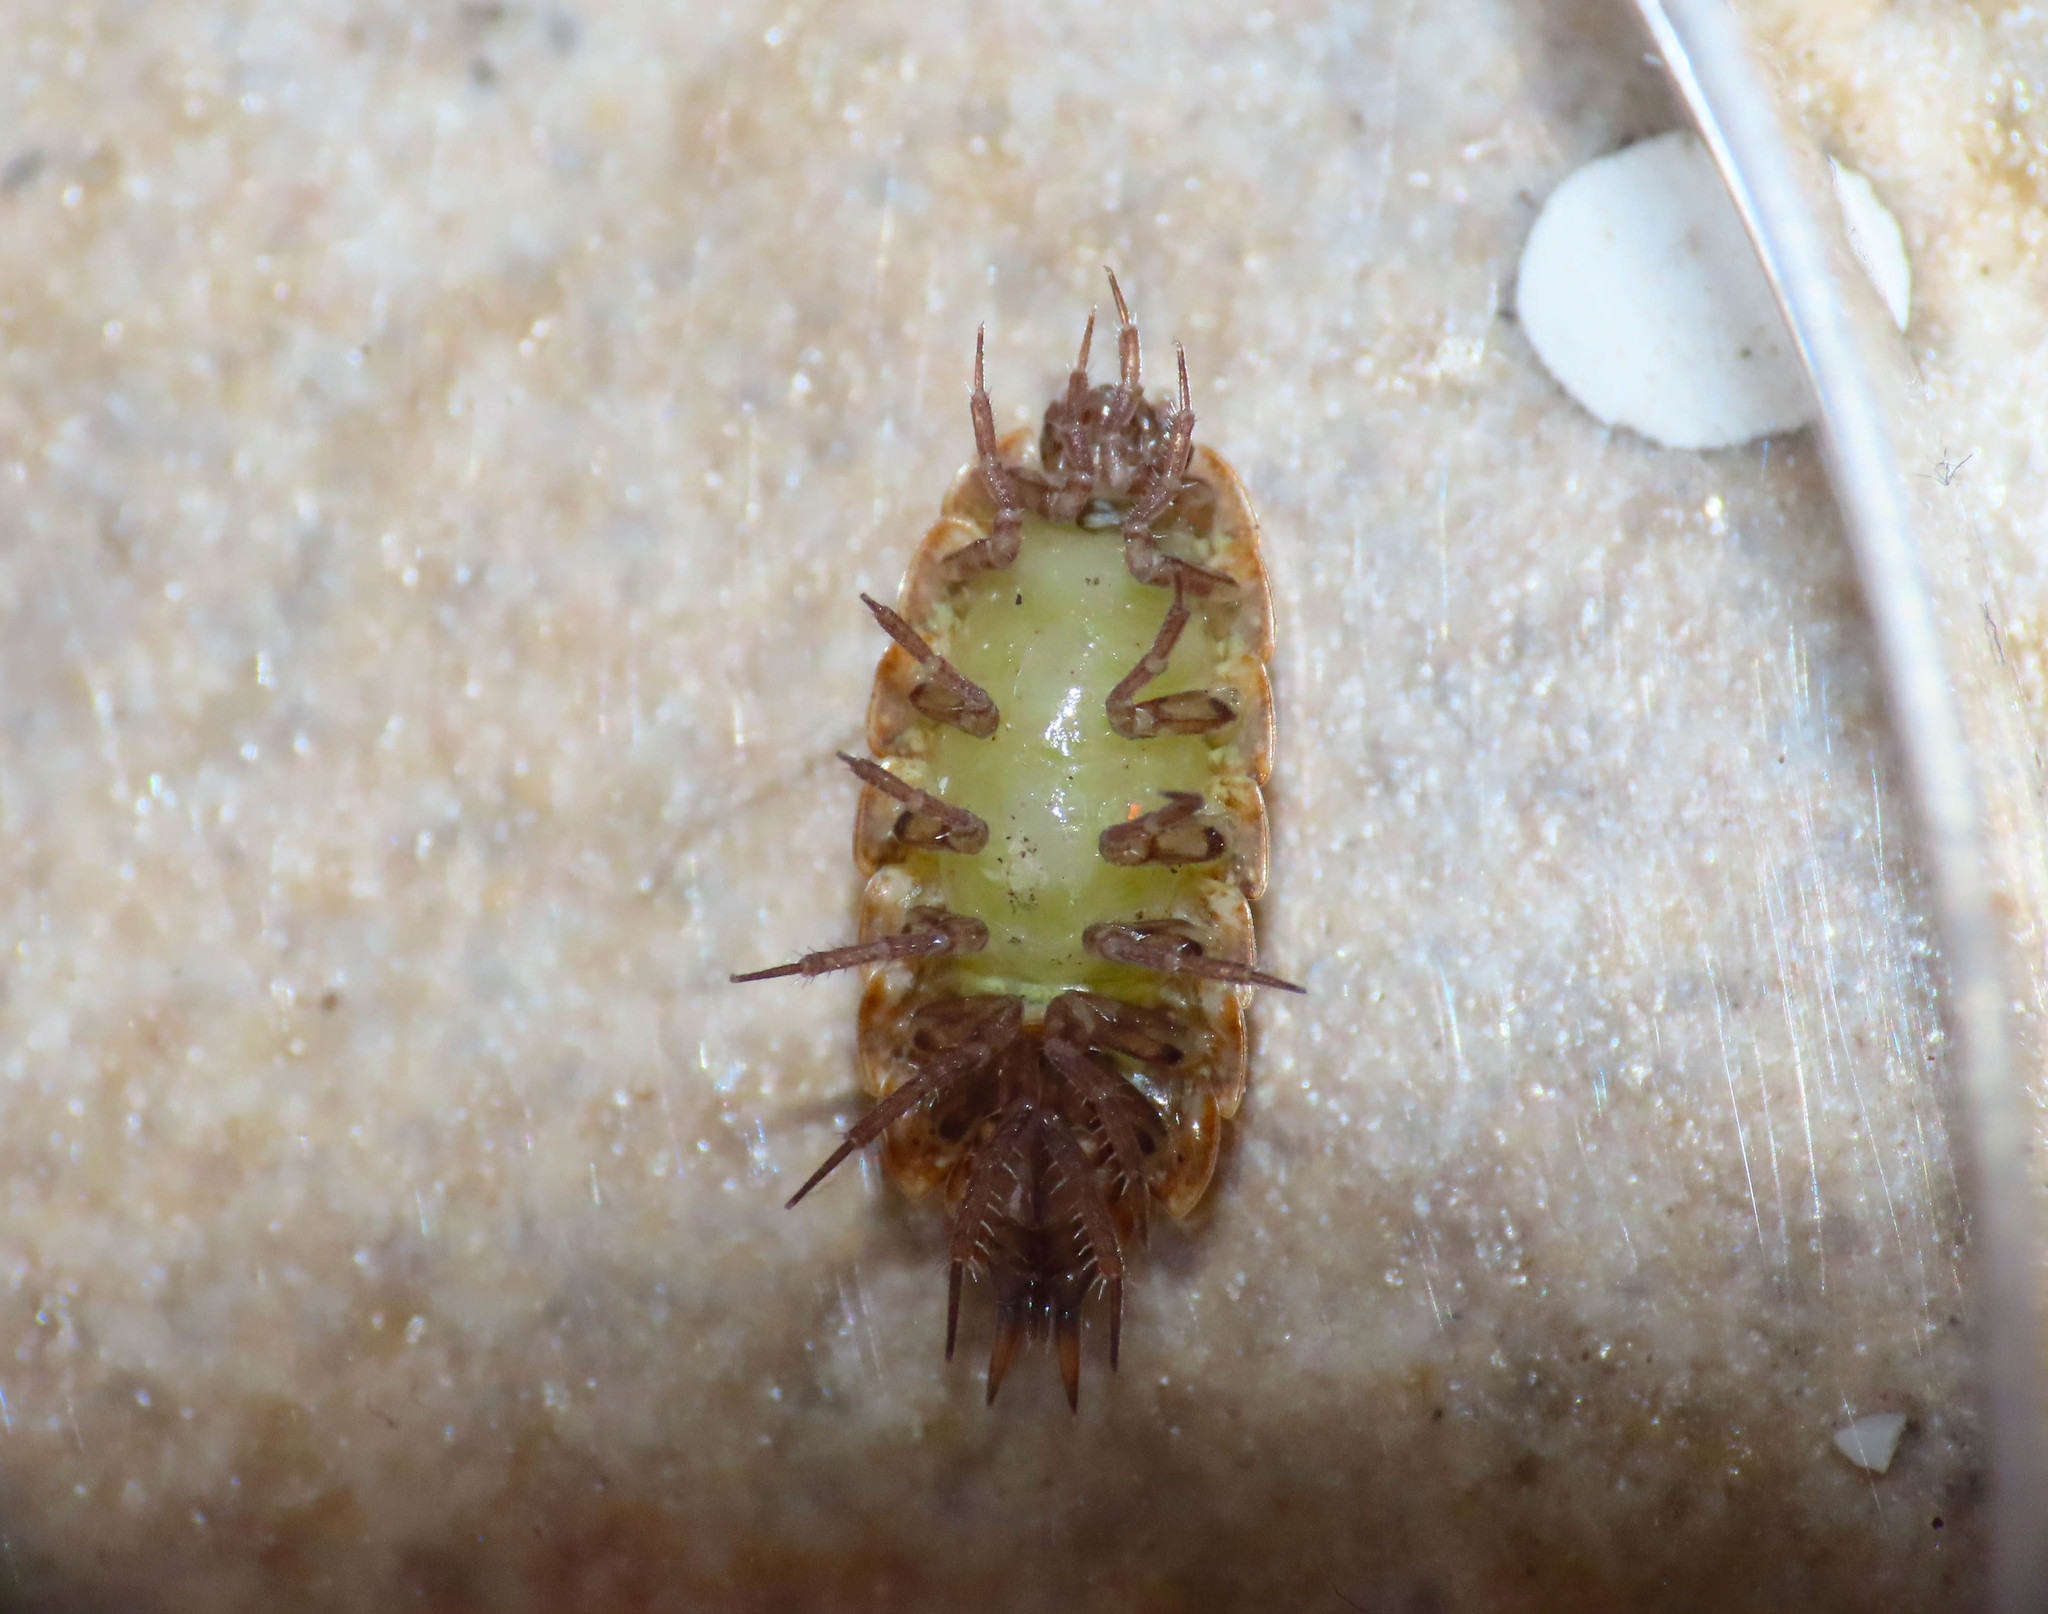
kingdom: Animalia
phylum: Arthropoda
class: Malacostraca
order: Isopoda
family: Agnaridae
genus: Orthometopon
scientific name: Orthometopon dalmatinum
